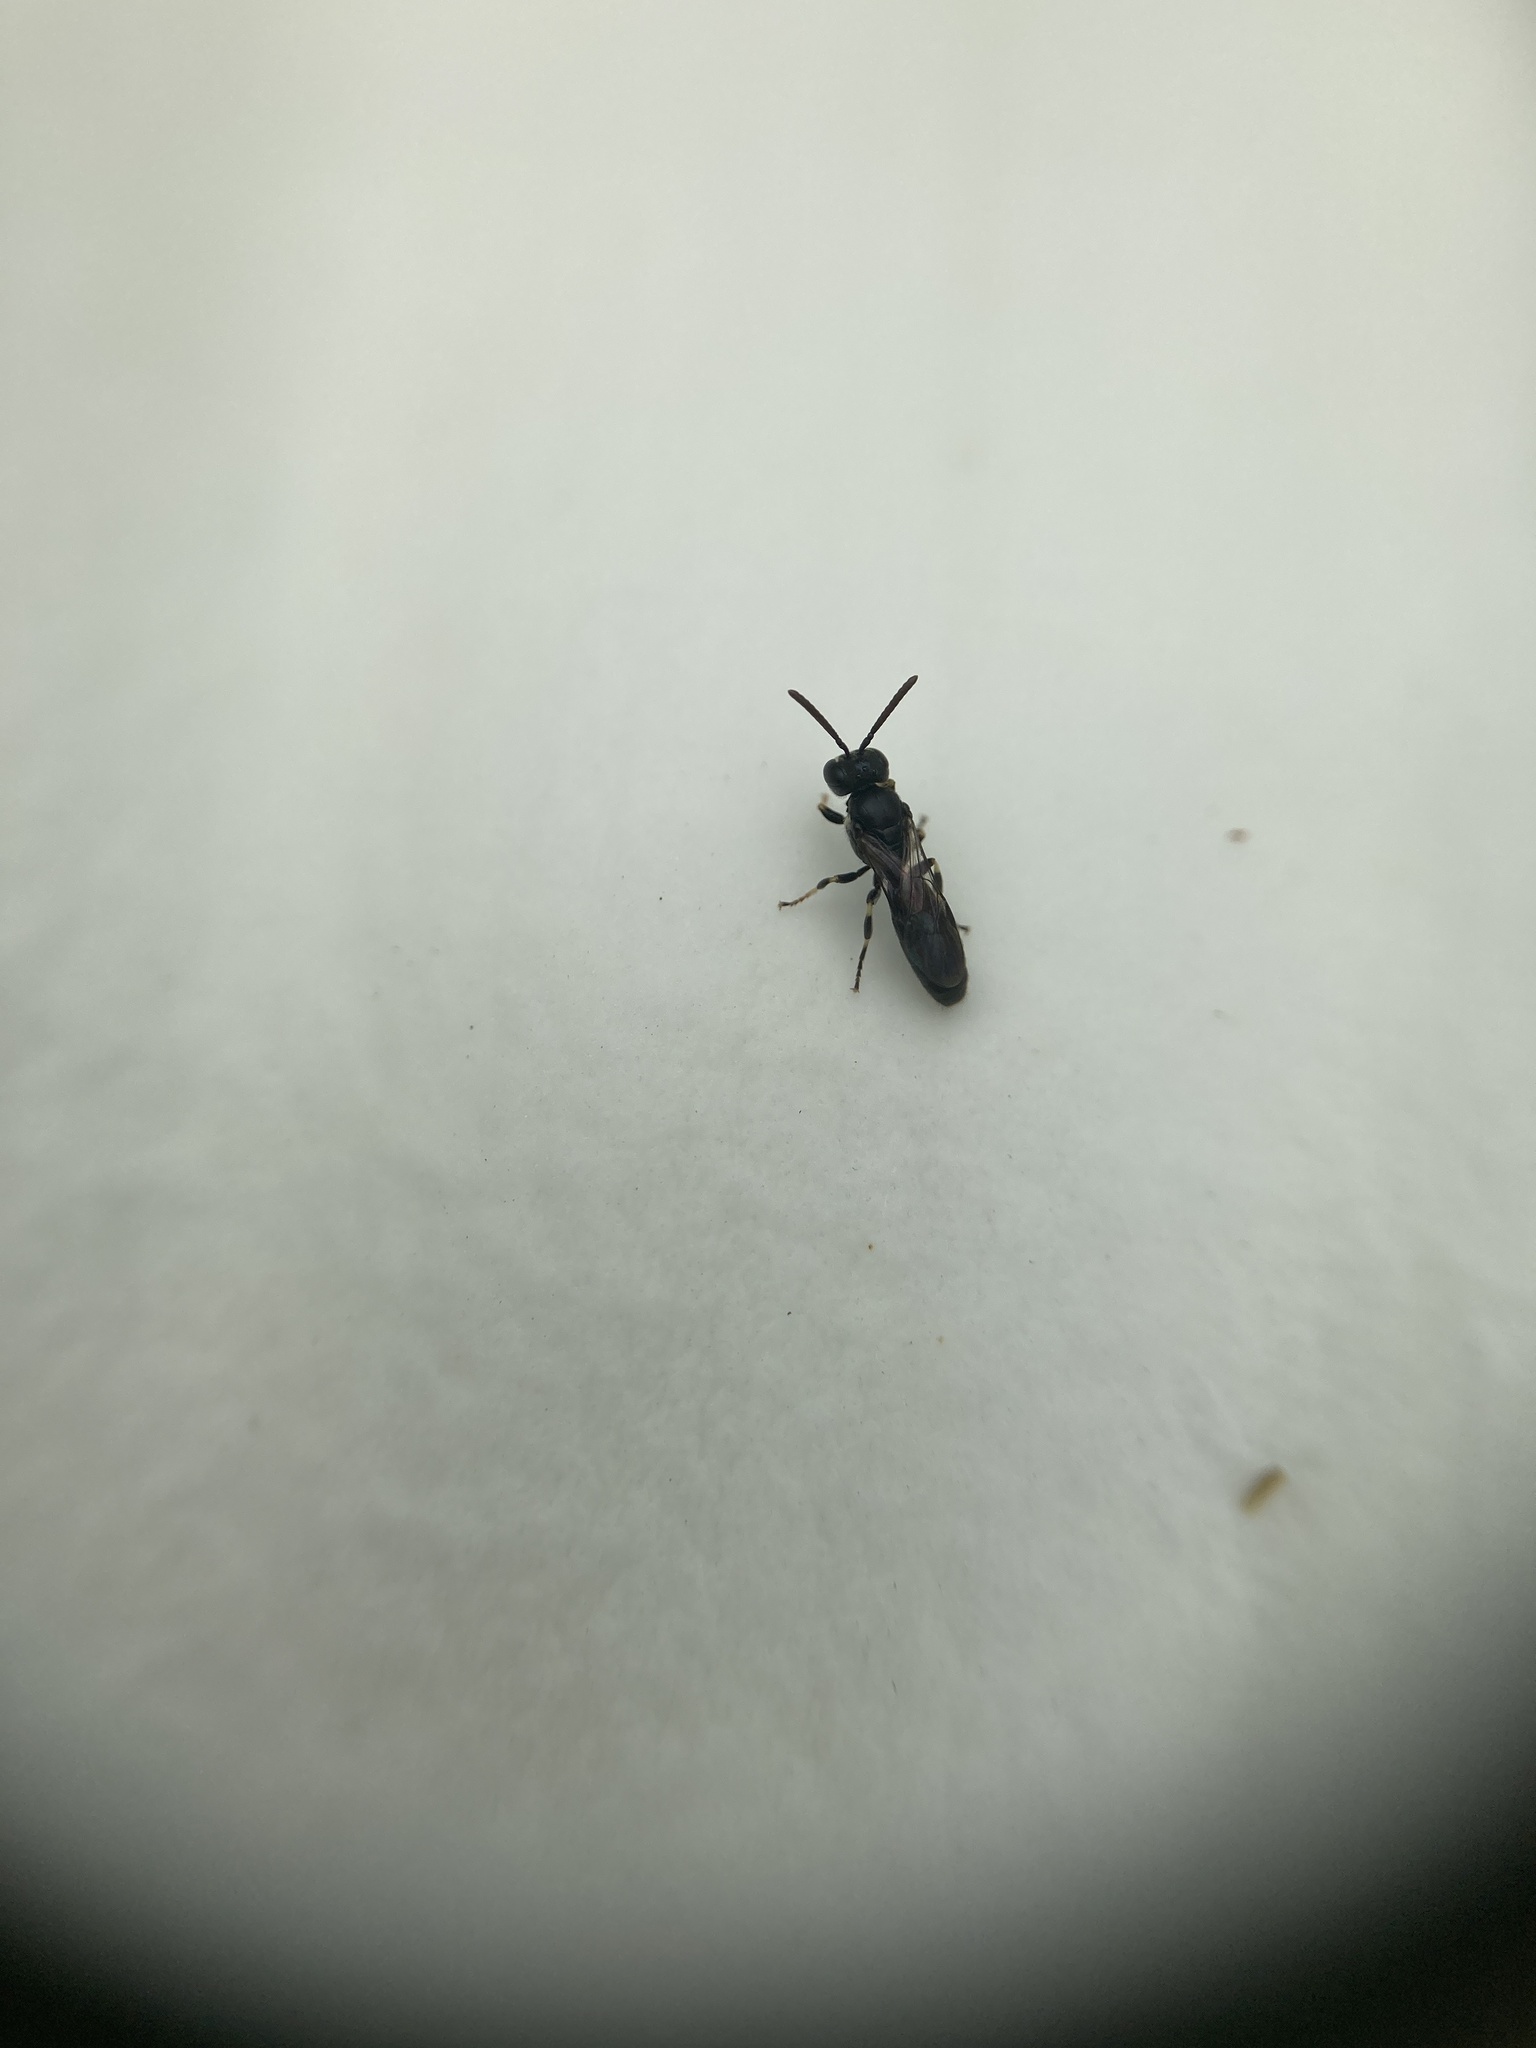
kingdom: Animalia
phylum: Arthropoda
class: Insecta
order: Hymenoptera
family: Colletidae
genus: Hylaeus
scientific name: Hylaeus perhumilis
